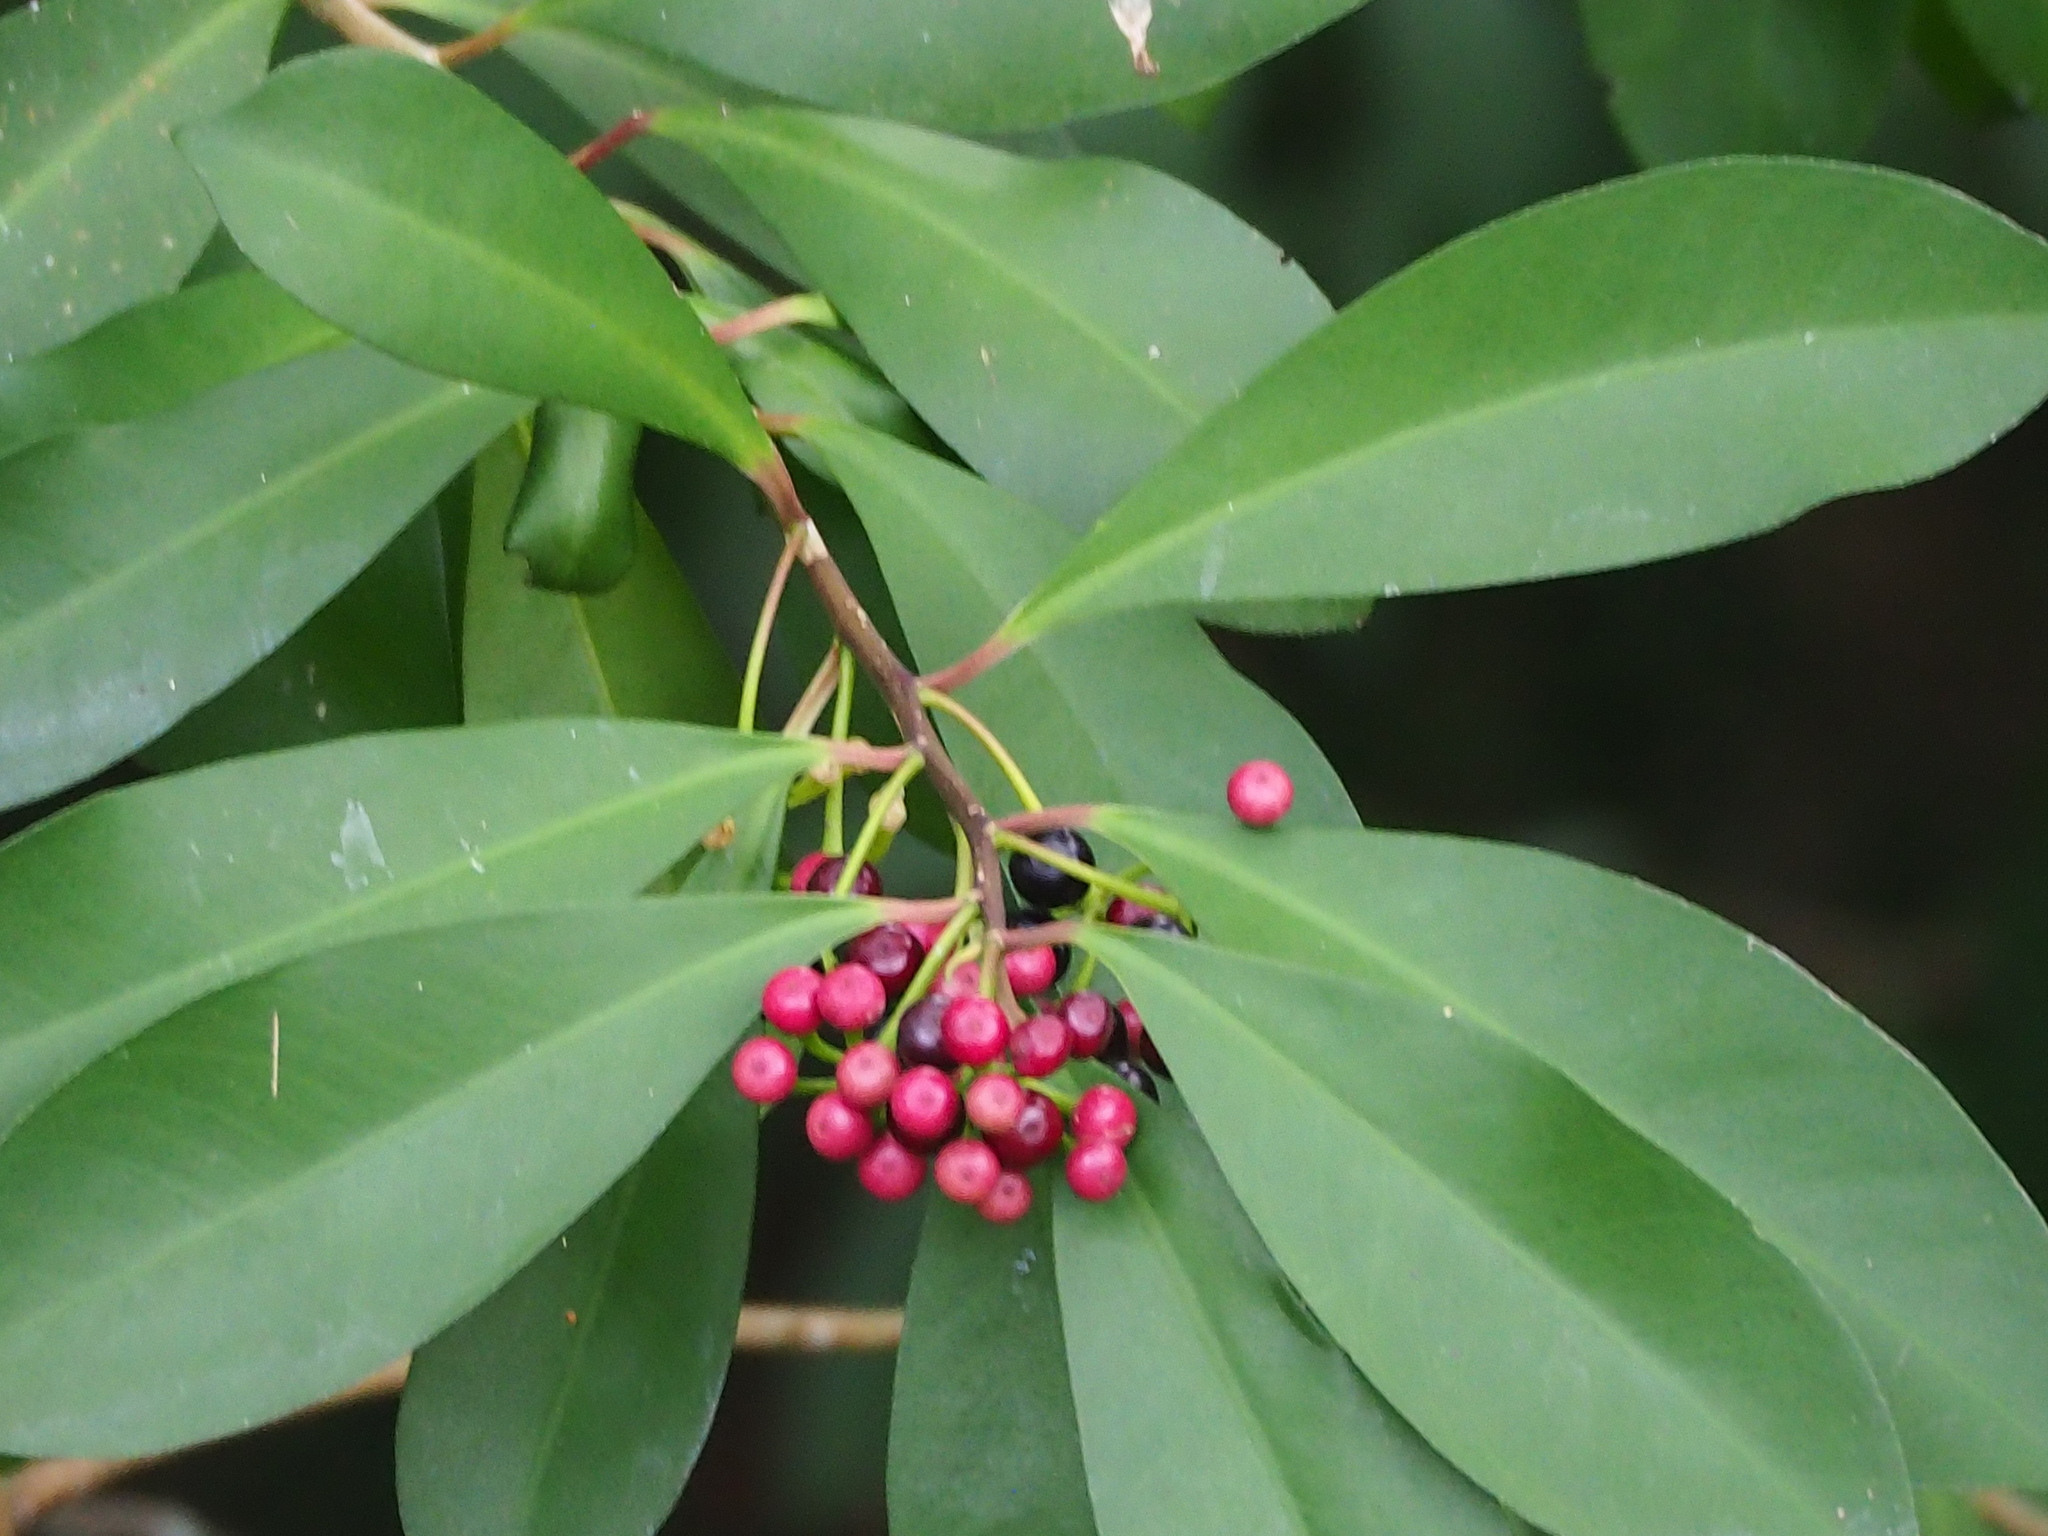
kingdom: Plantae
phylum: Tracheophyta
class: Magnoliopsida
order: Ericales
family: Primulaceae
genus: Ardisia
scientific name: Ardisia elliptica
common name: Shoebutton
